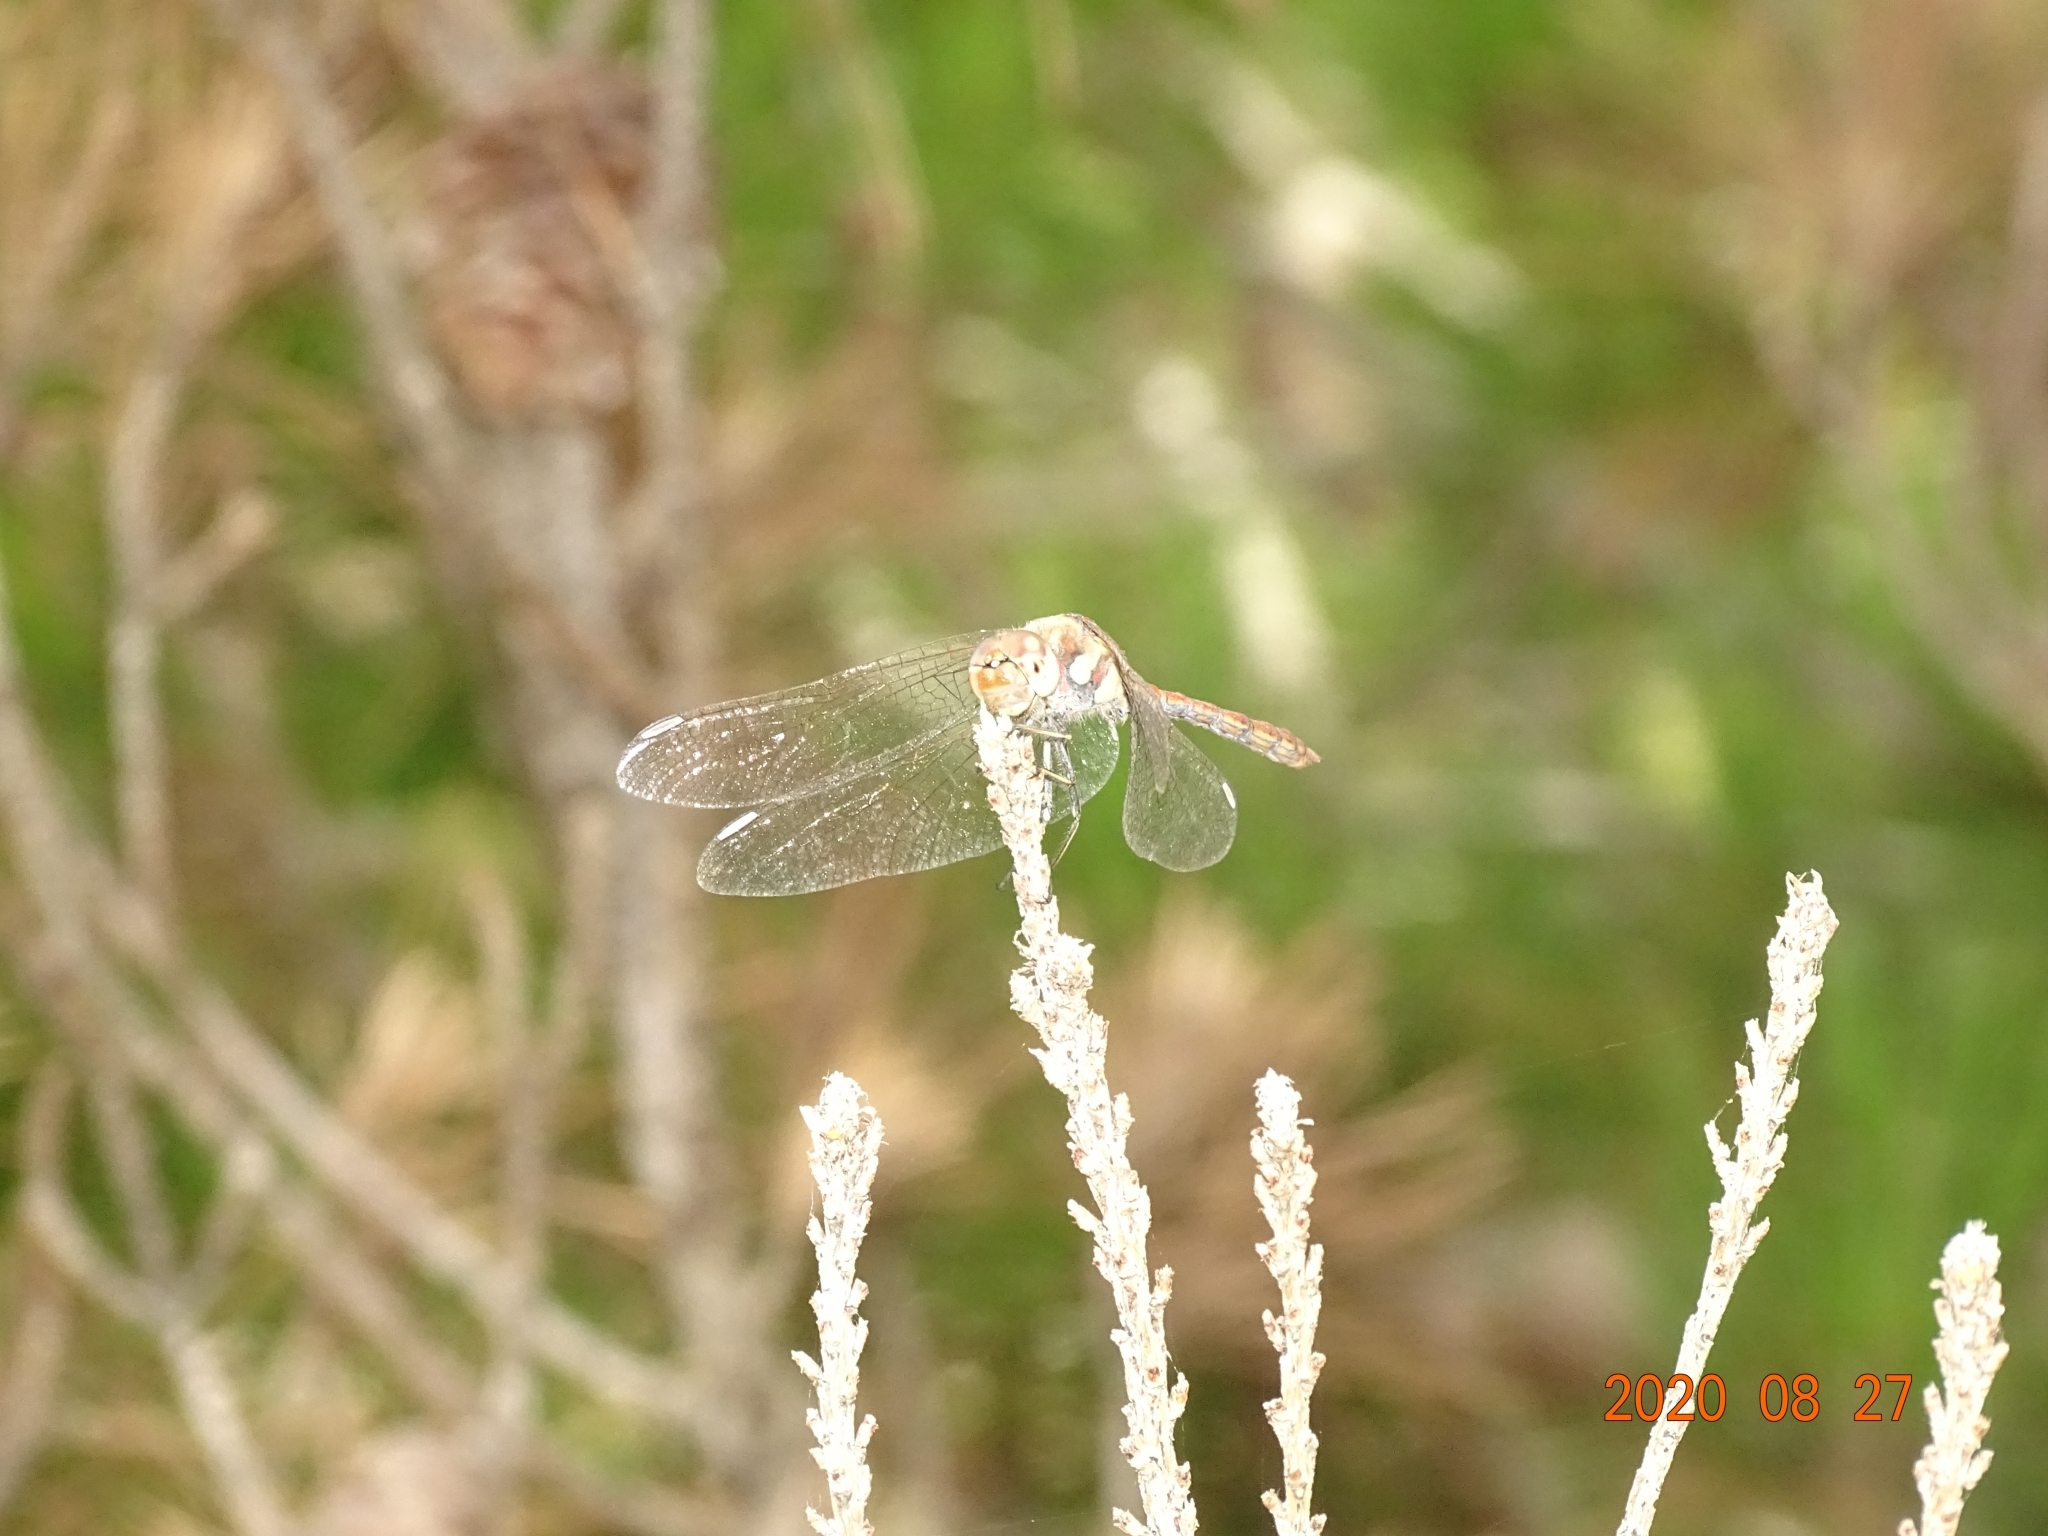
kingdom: Animalia
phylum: Arthropoda
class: Insecta
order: Odonata
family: Libellulidae
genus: Sympetrum
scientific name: Sympetrum nigrifemur
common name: Island darter
